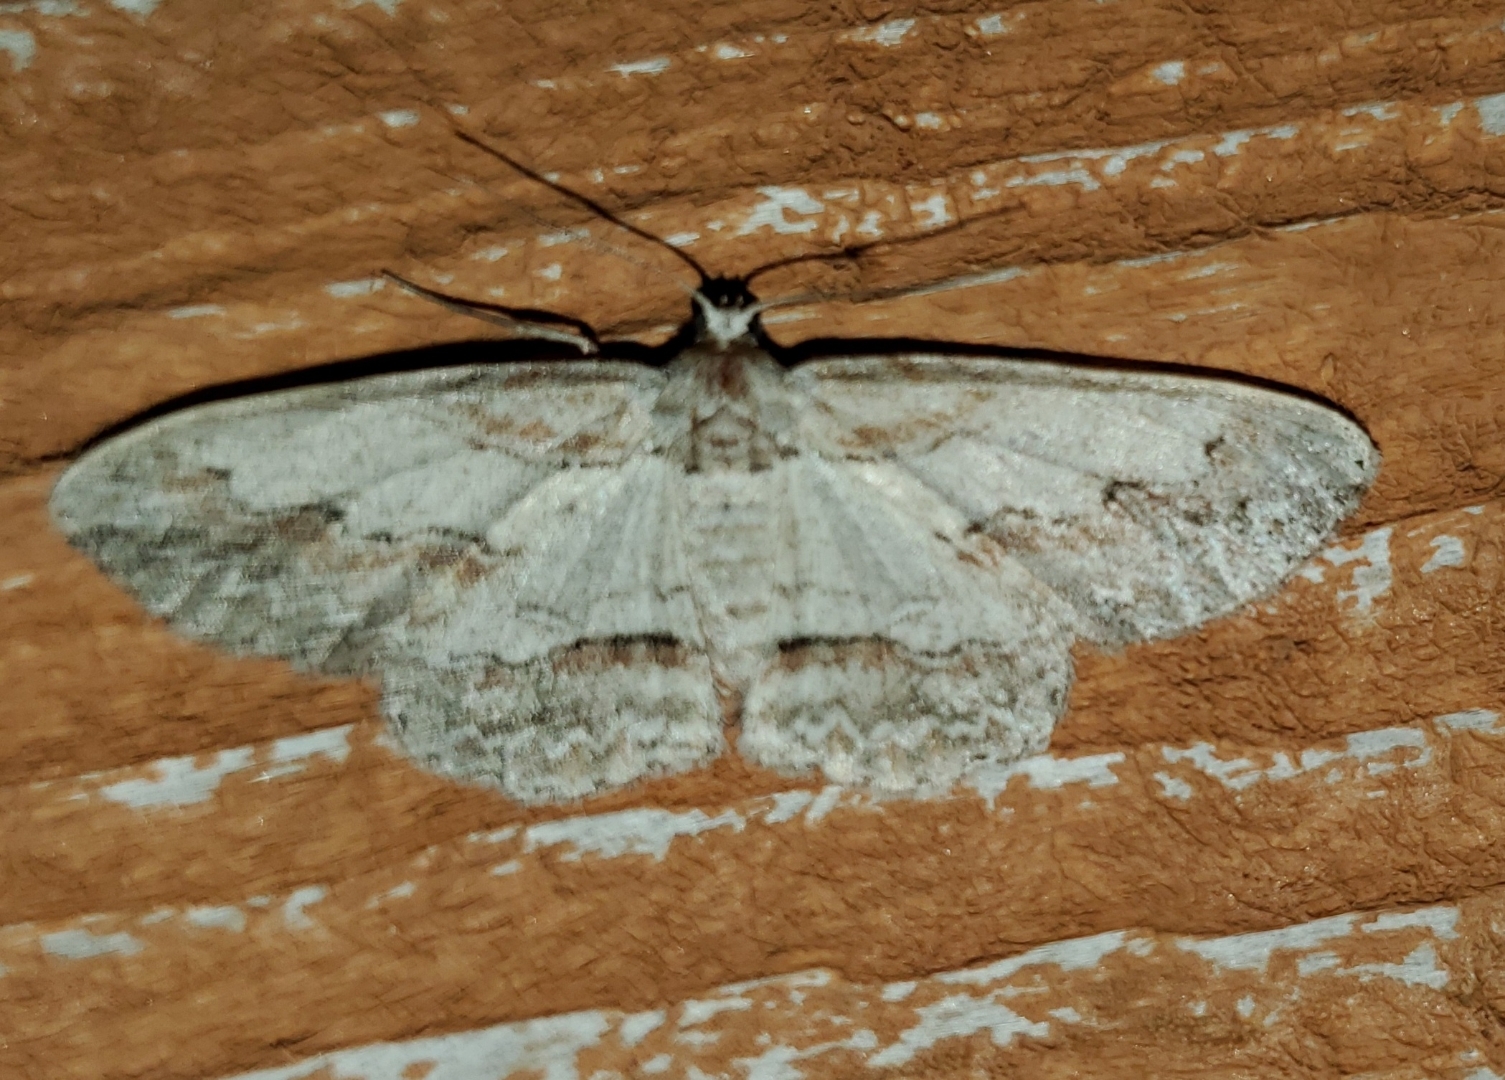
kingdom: Animalia
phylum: Arthropoda
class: Insecta
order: Lepidoptera
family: Geometridae
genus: Iridopsis
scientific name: Iridopsis pergracilis
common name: Cypress looper
